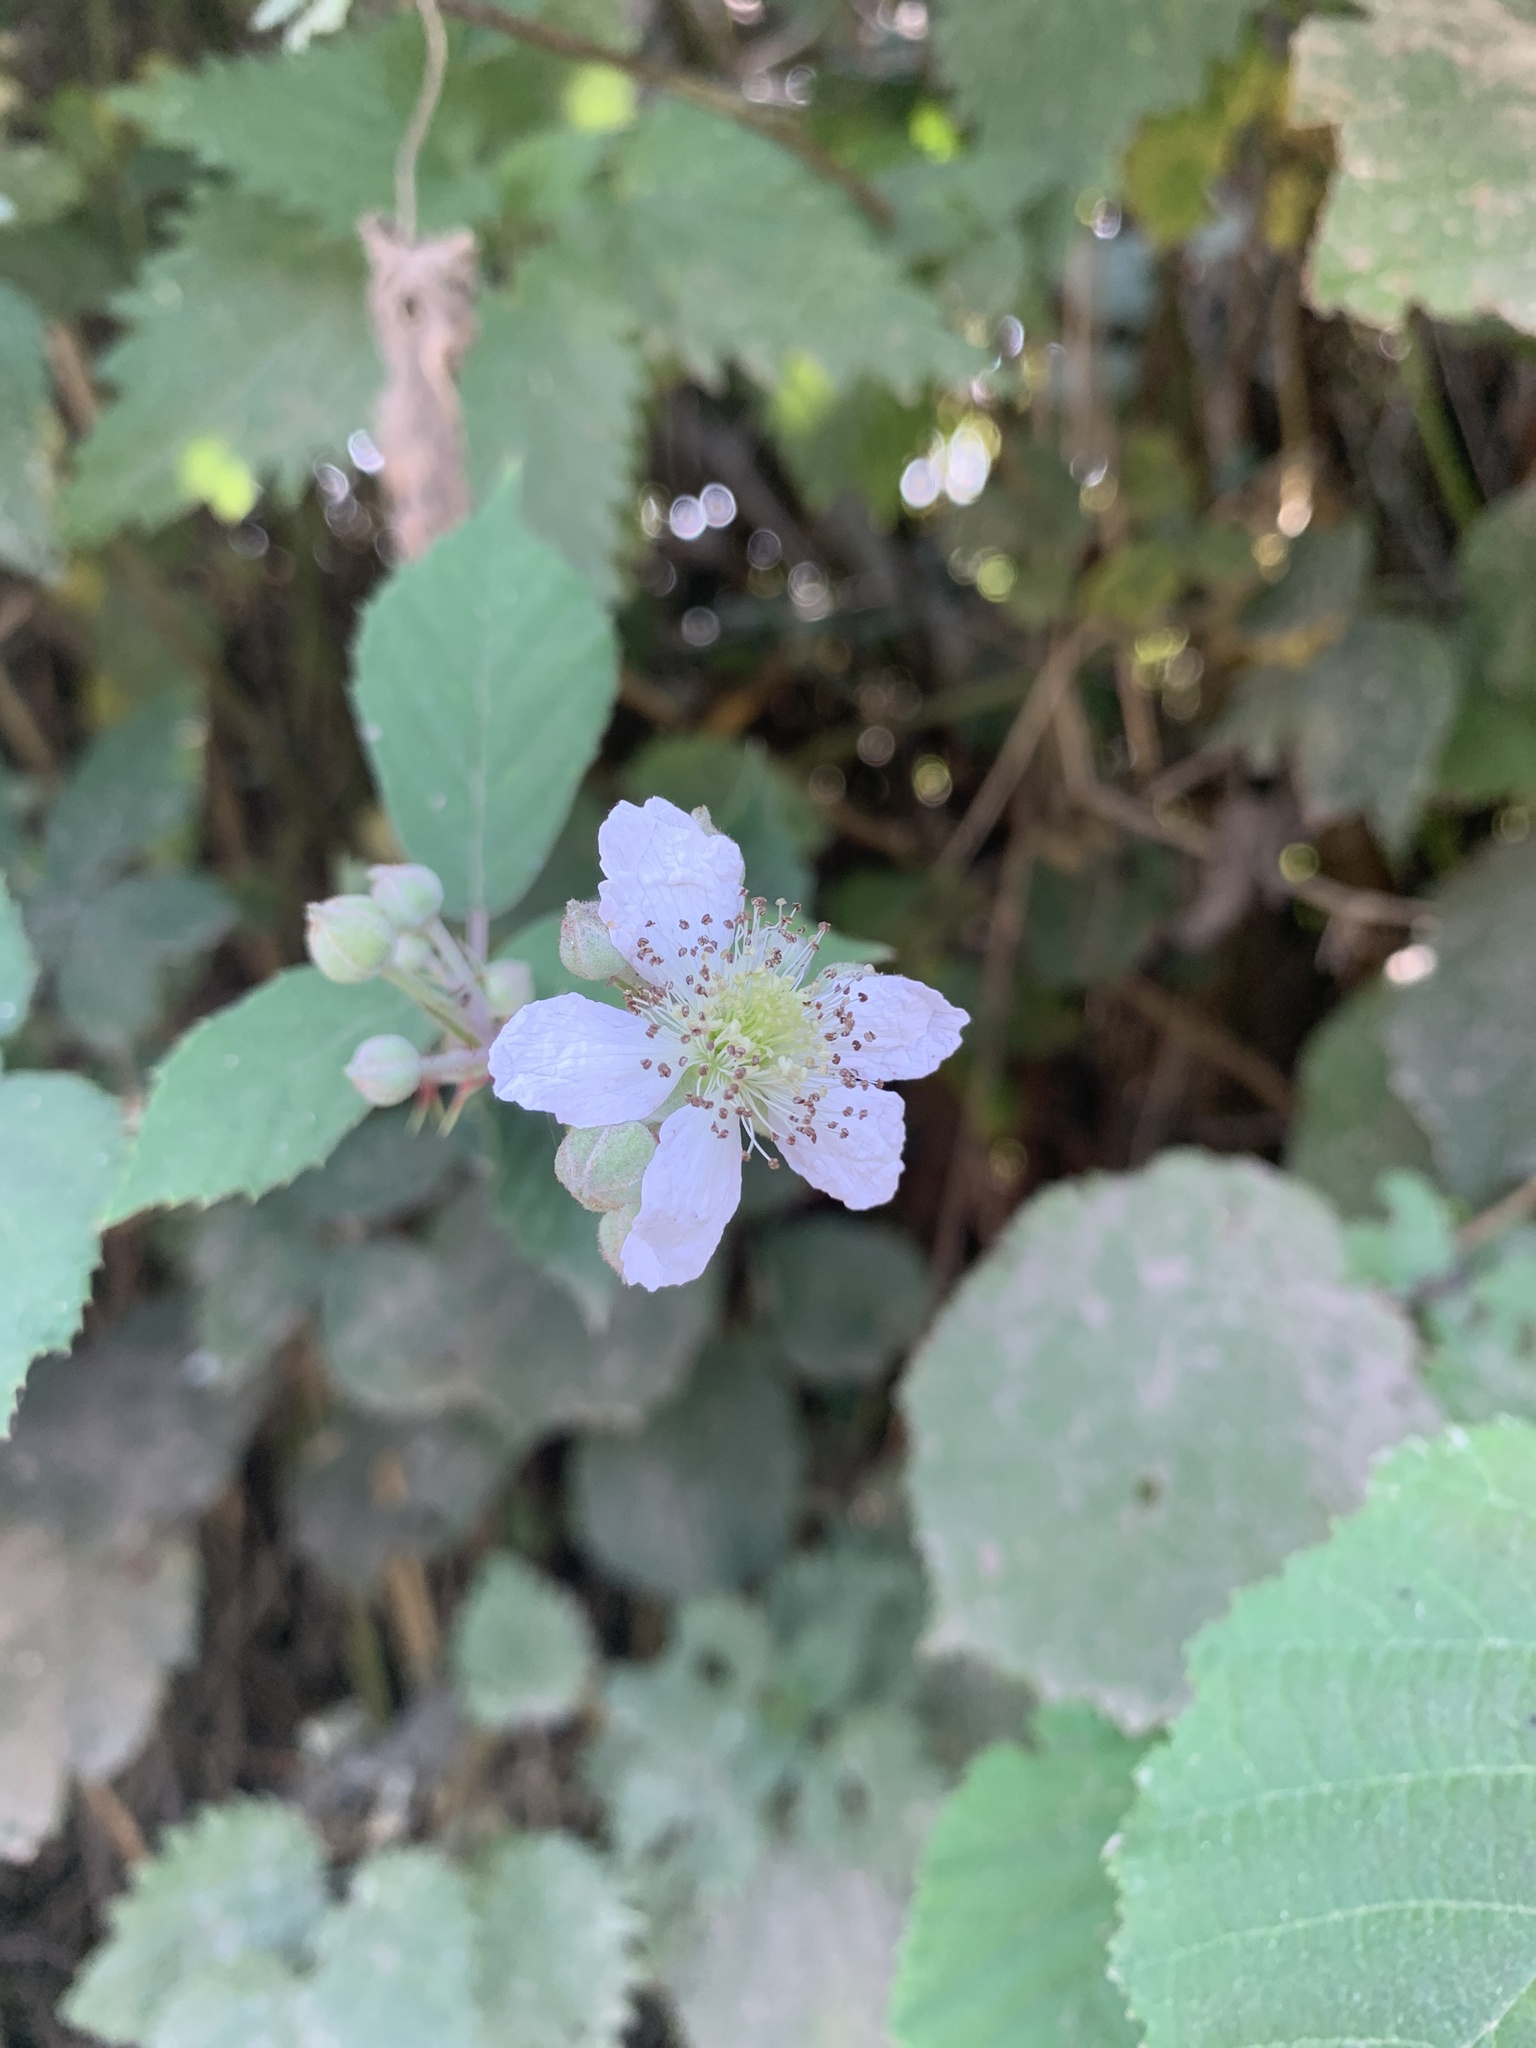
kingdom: Plantae
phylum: Tracheophyta
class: Magnoliopsida
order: Rosales
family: Rosaceae
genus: Rubus
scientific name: Rubus fruticosus
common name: Blackberry, bramble
